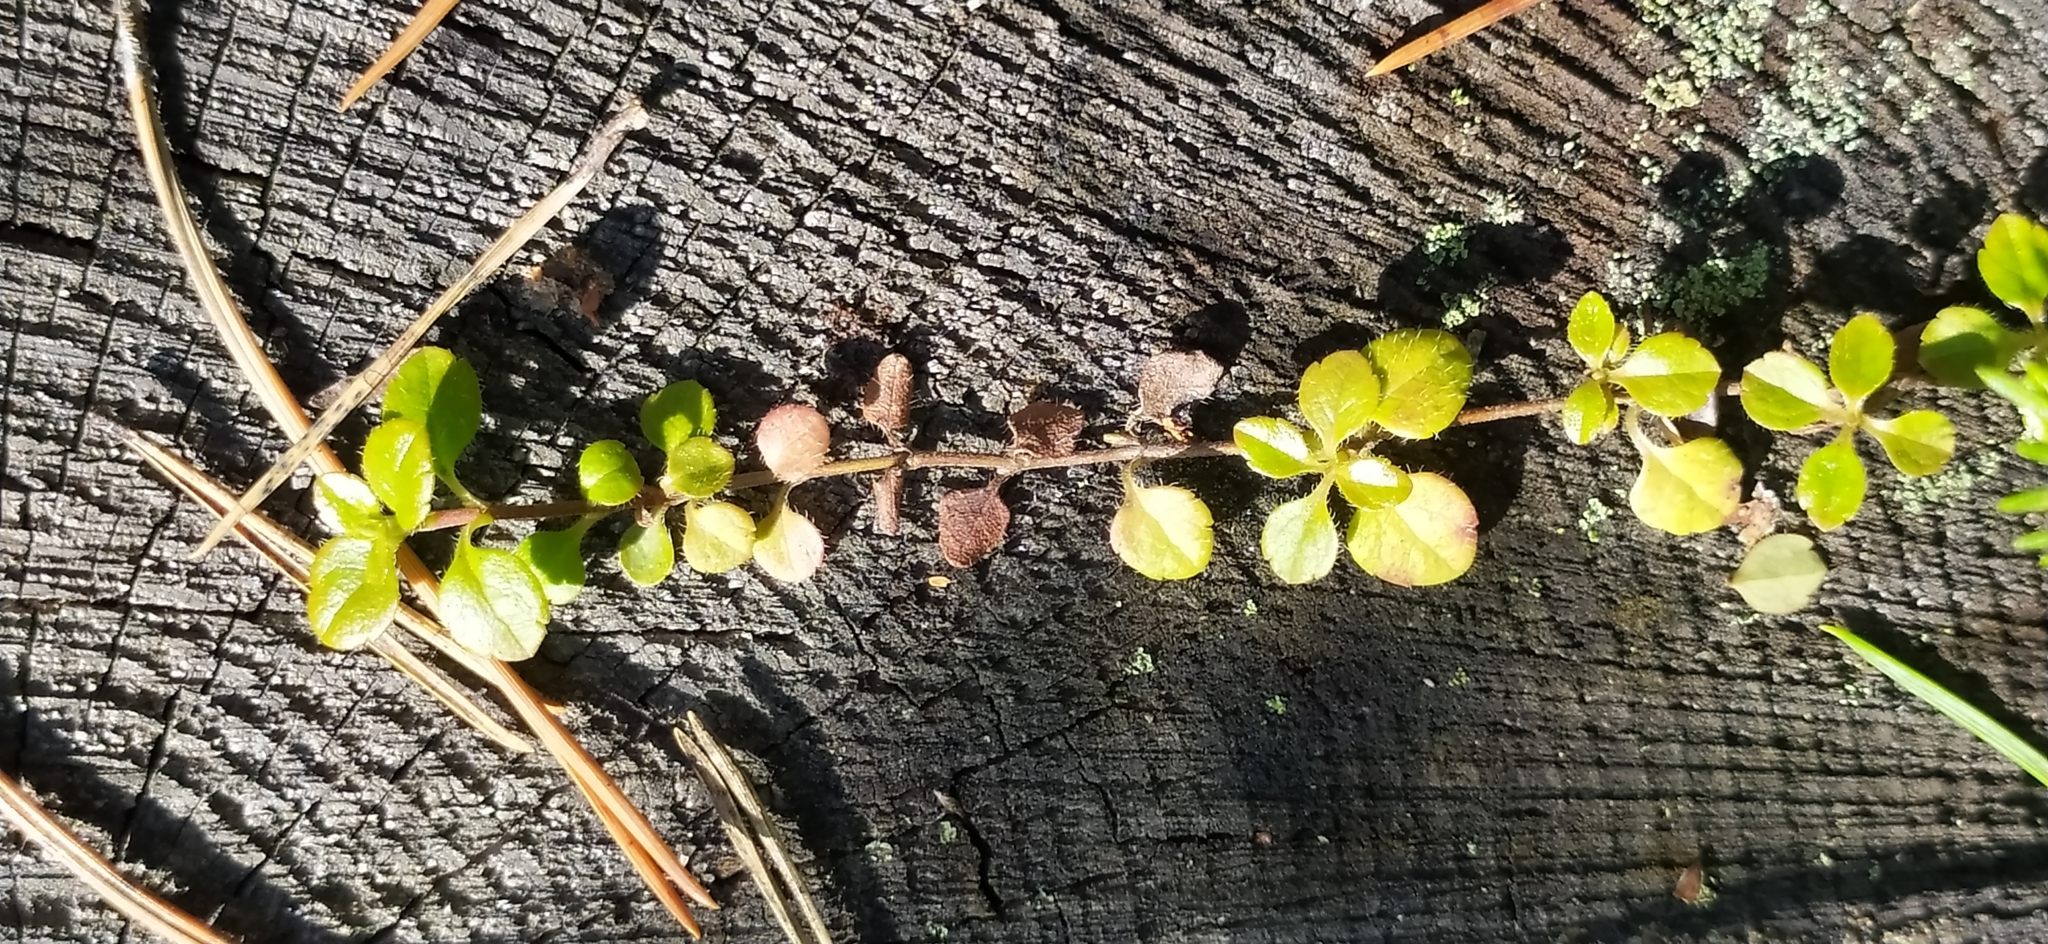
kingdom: Plantae
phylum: Tracheophyta
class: Magnoliopsida
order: Dipsacales
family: Caprifoliaceae
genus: Linnaea
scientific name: Linnaea borealis
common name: Twinflower
